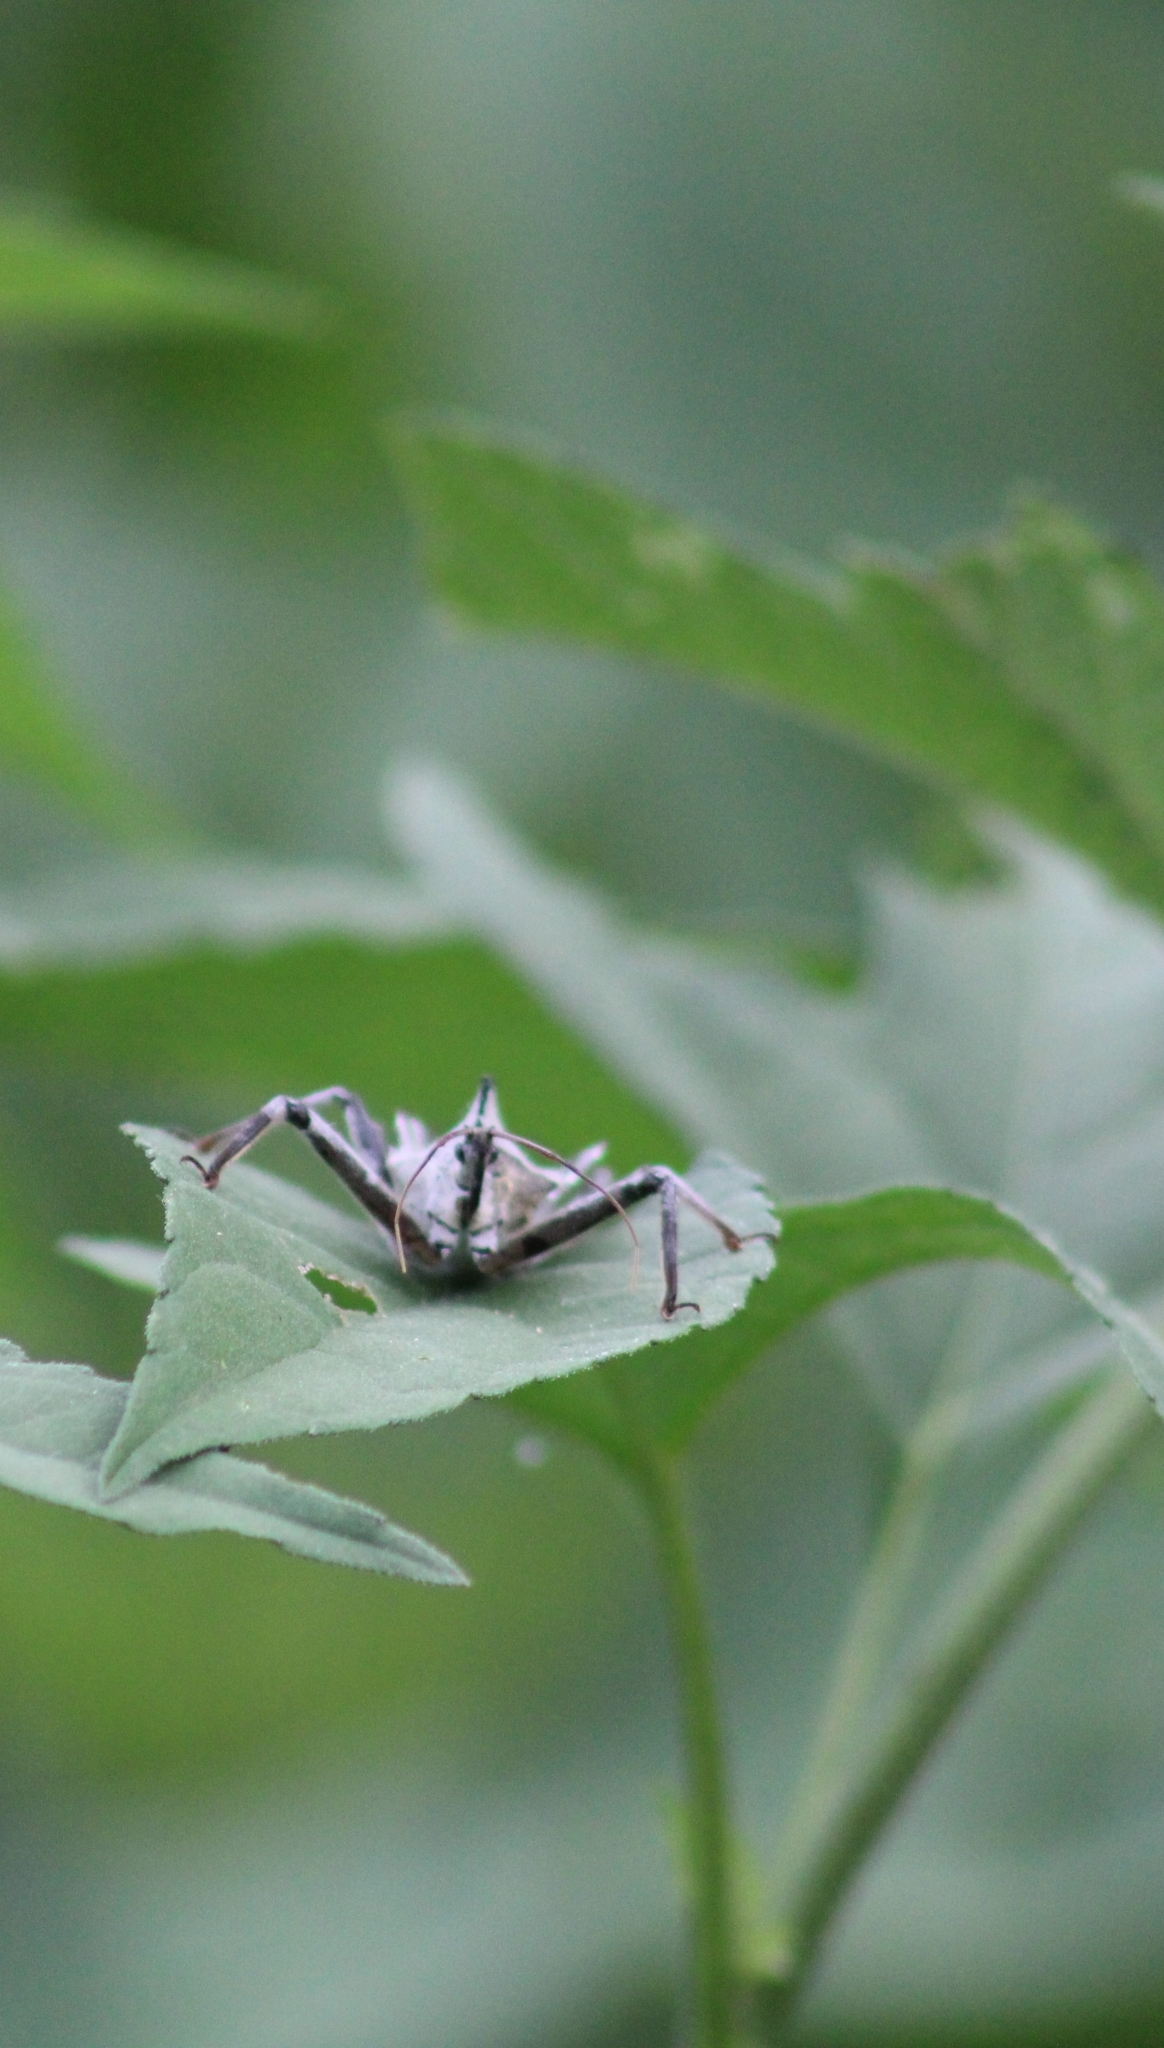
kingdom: Animalia
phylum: Arthropoda
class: Insecta
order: Hemiptera
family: Reduviidae
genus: Arilus
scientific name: Arilus cristatus
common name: North american wheel bug
